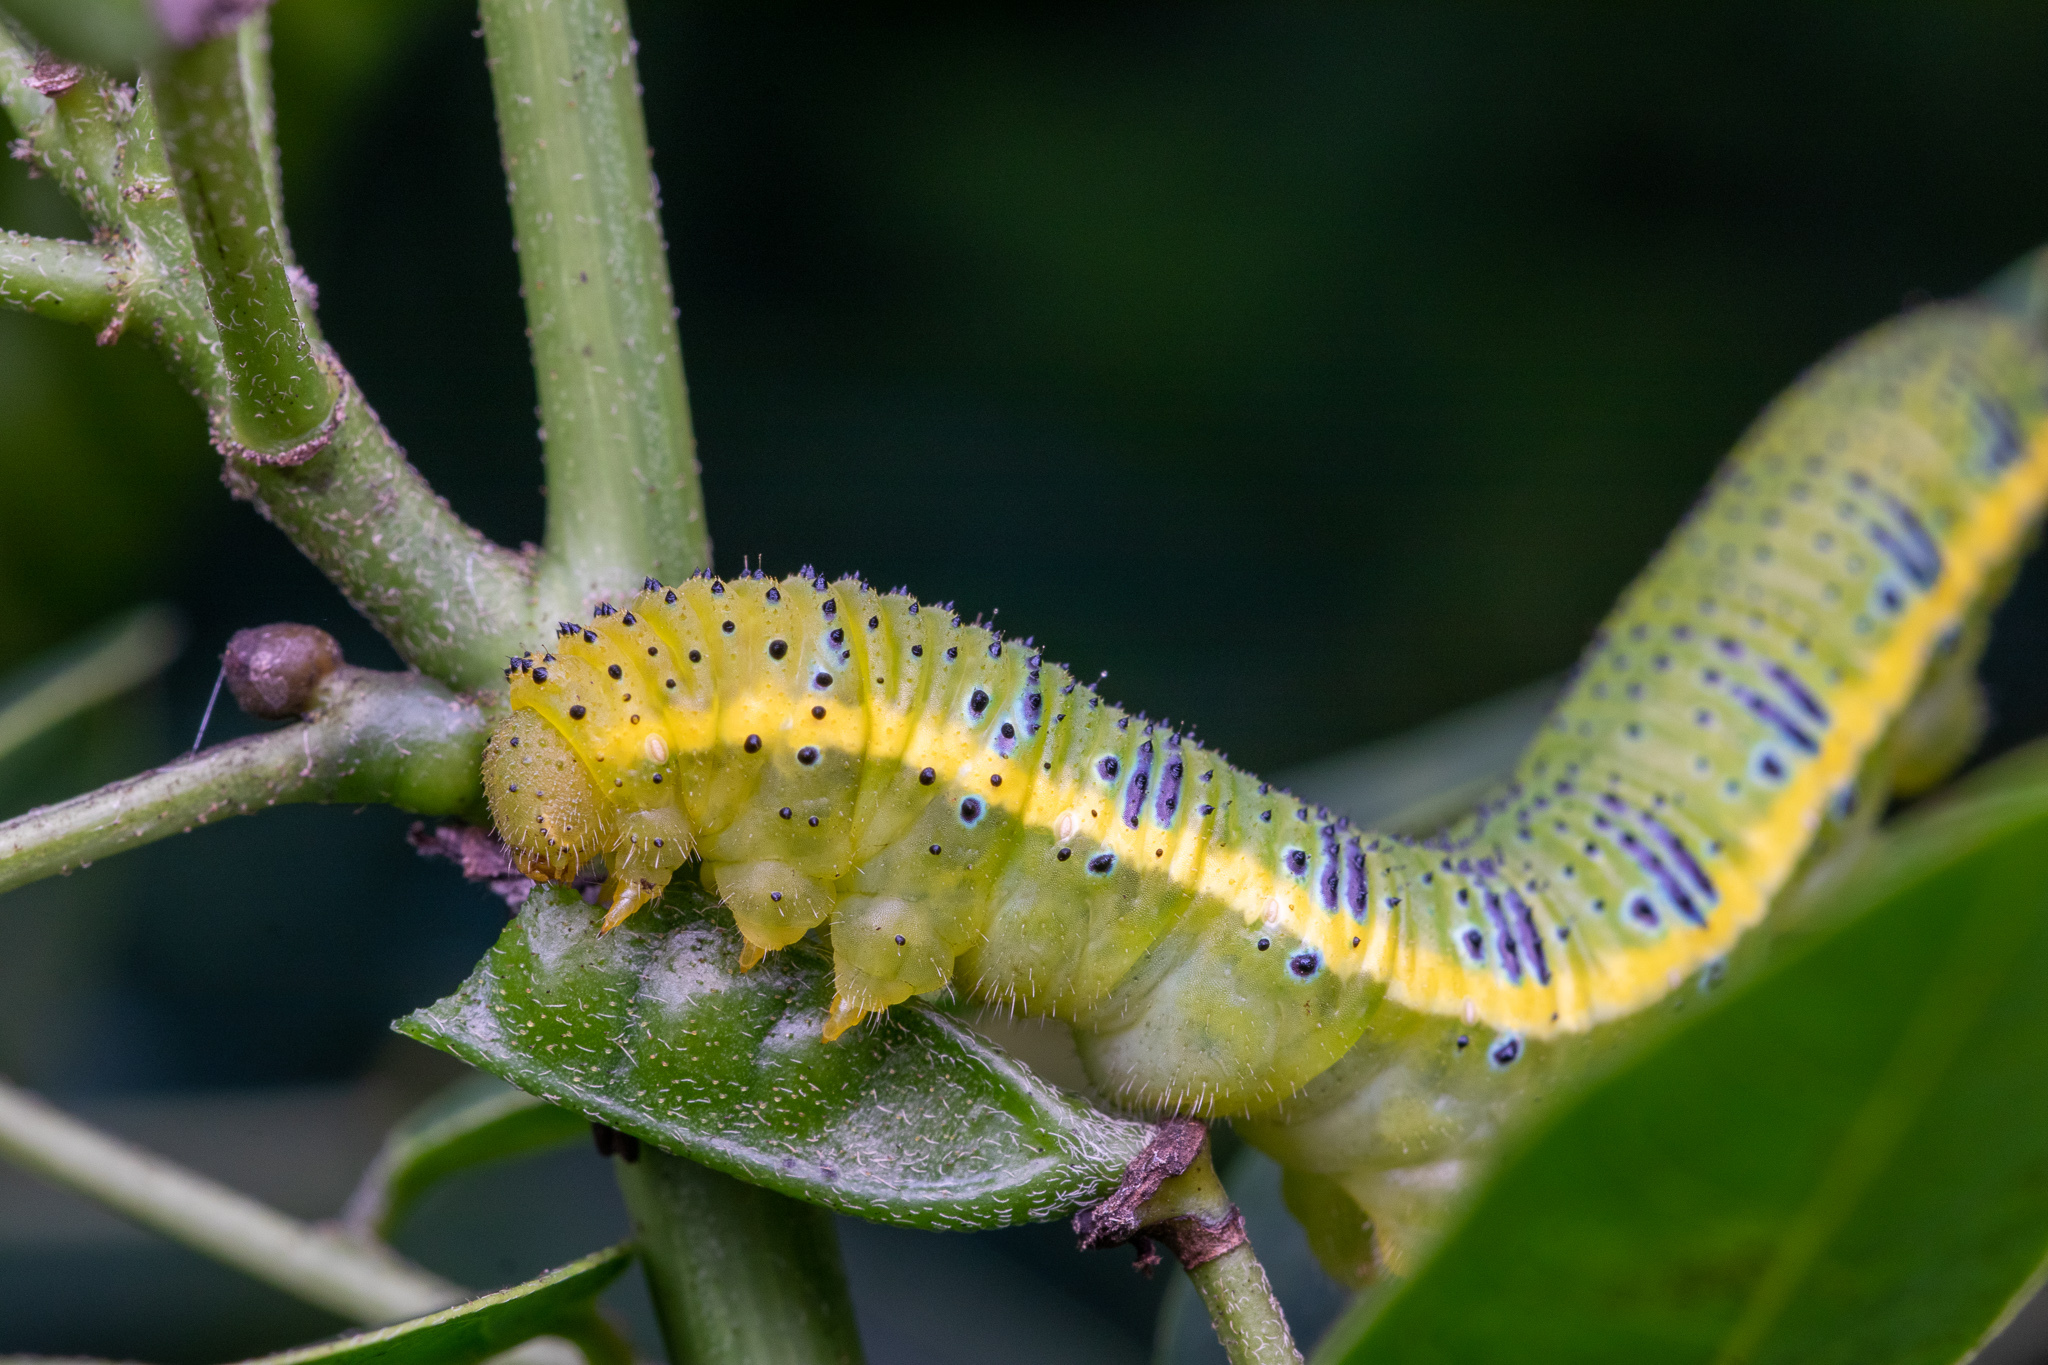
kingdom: Animalia
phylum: Arthropoda
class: Insecta
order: Lepidoptera
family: Pieridae
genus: Phoebis
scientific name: Phoebis sennae
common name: Cloudless sulphur
